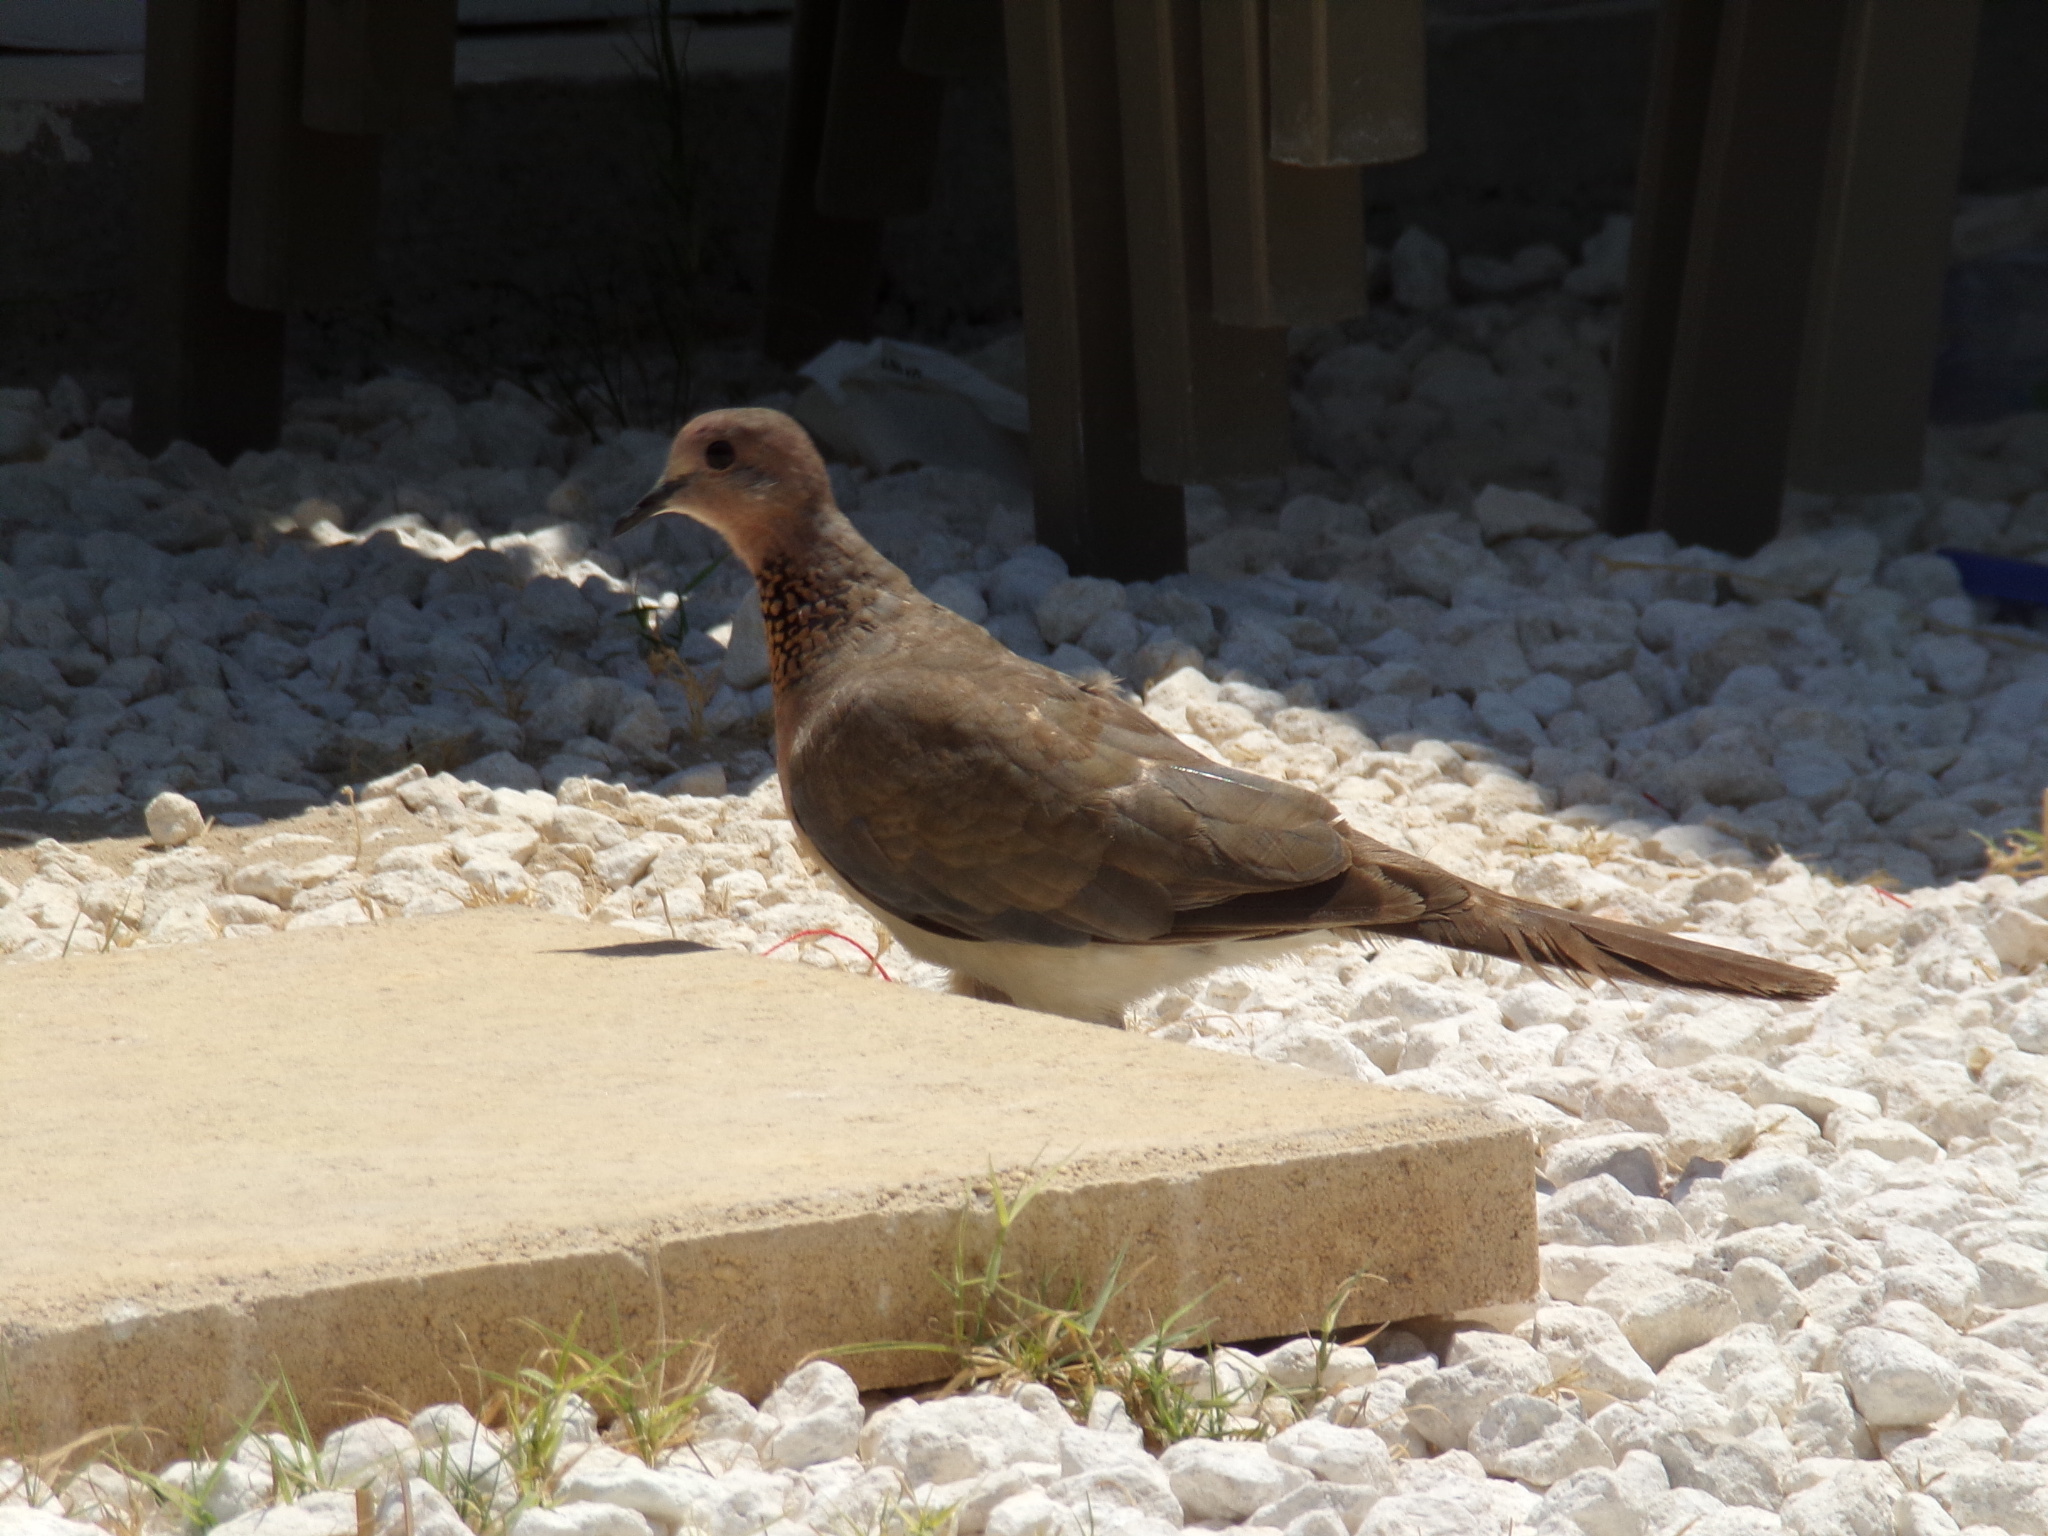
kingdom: Animalia
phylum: Chordata
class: Aves
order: Columbiformes
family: Columbidae
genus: Spilopelia
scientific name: Spilopelia senegalensis
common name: Laughing dove
